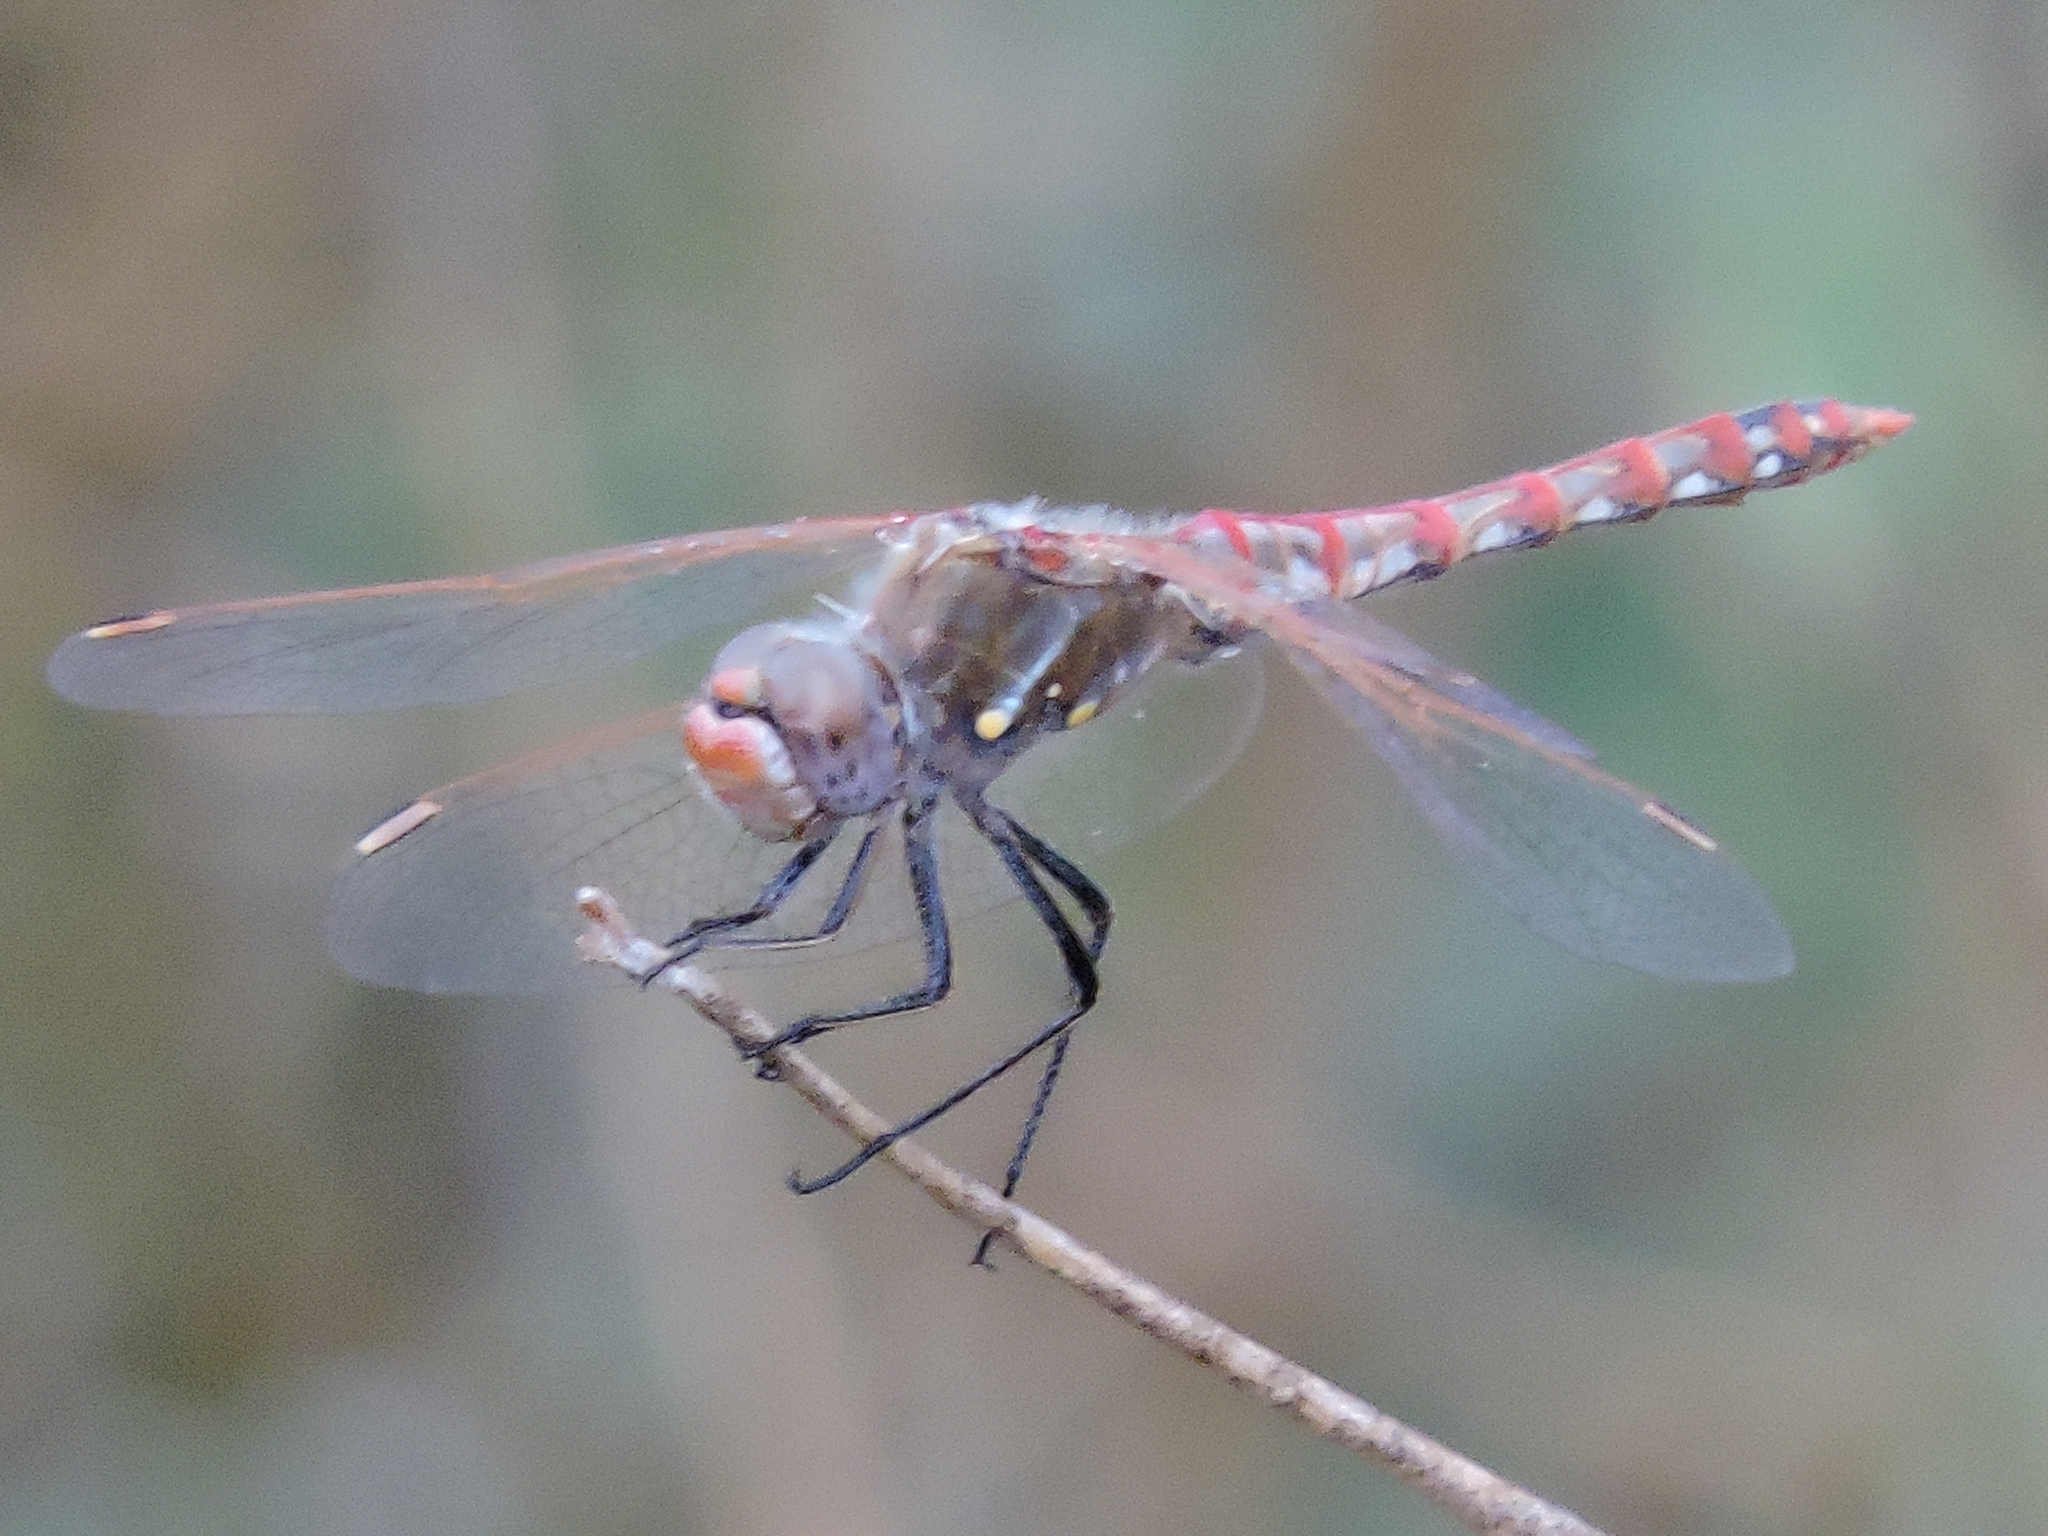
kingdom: Animalia
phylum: Arthropoda
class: Insecta
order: Odonata
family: Libellulidae
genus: Sympetrum
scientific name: Sympetrum corruptum
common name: Variegated meadowhawk
